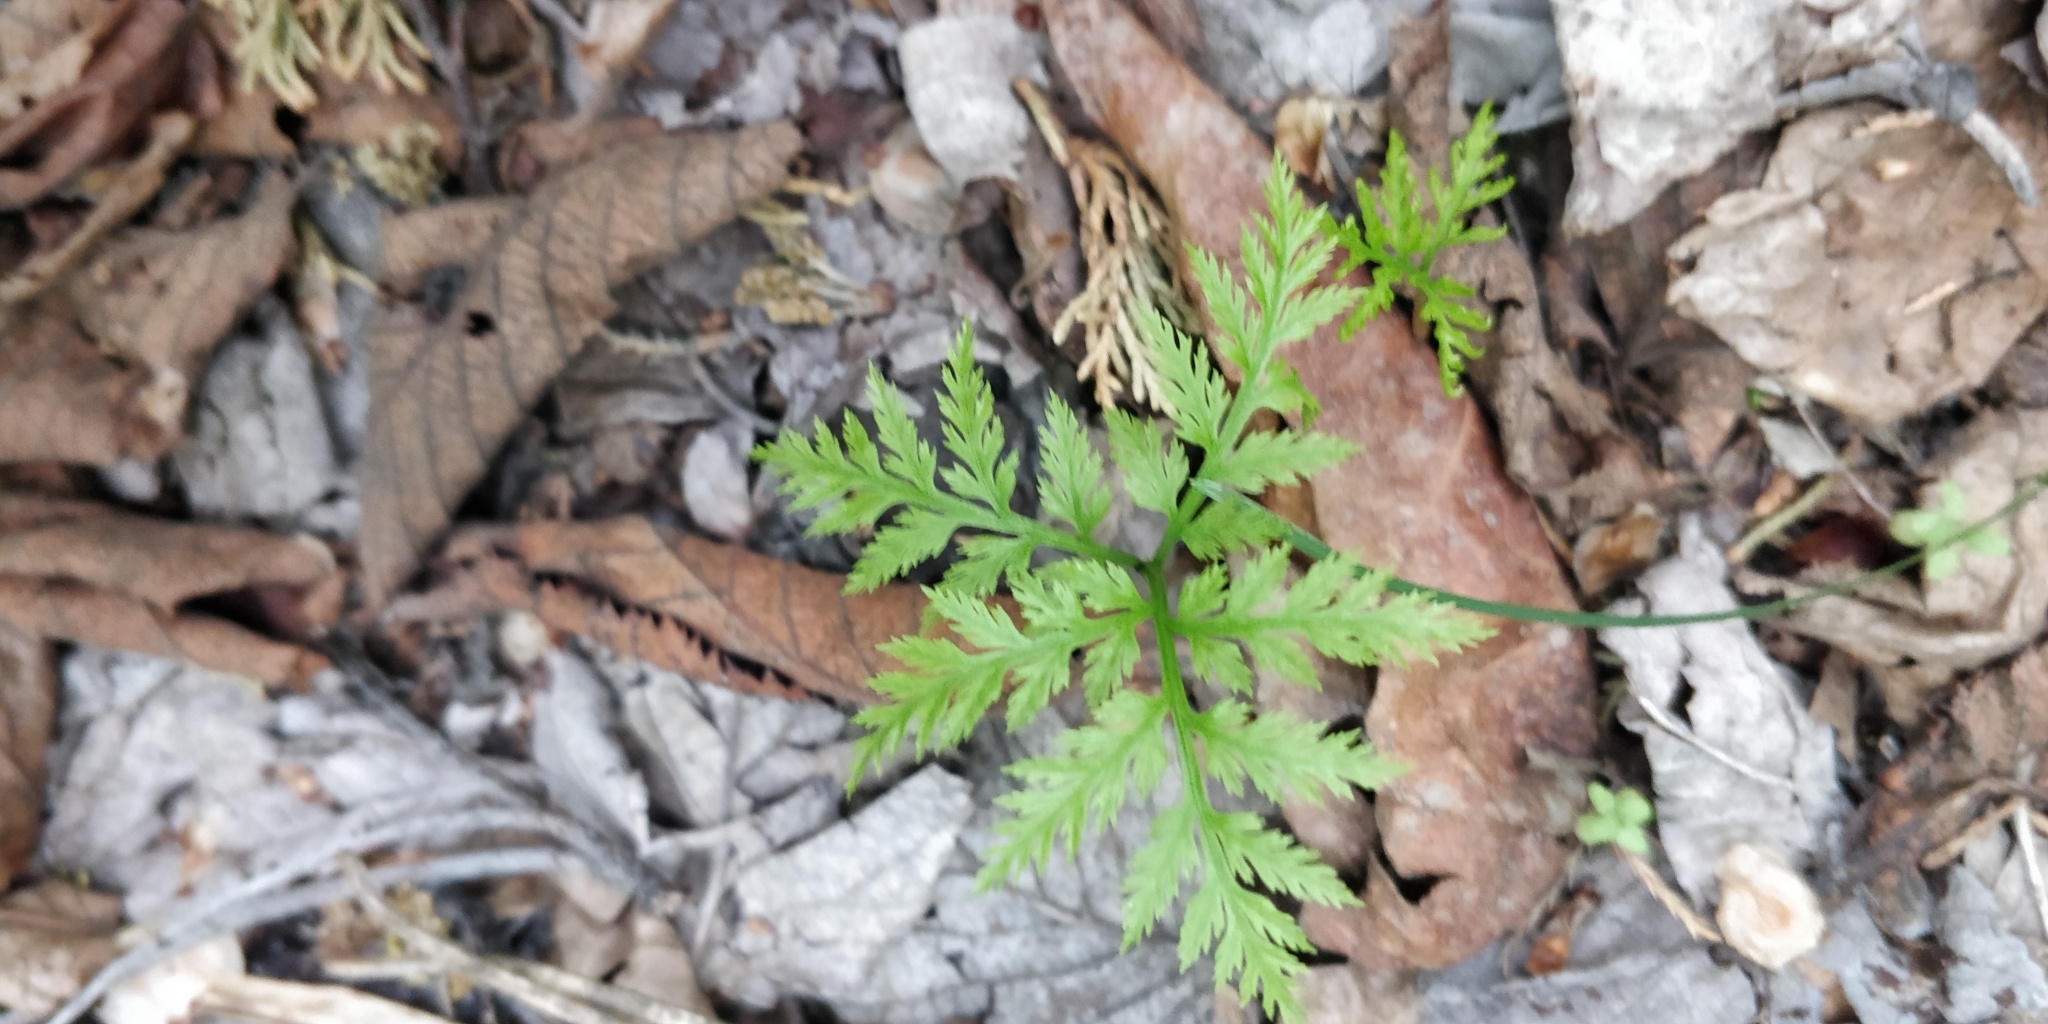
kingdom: Plantae
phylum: Tracheophyta
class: Polypodiopsida
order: Ophioglossales
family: Ophioglossaceae
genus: Botrypus
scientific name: Botrypus virginianus
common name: Common grapefern
